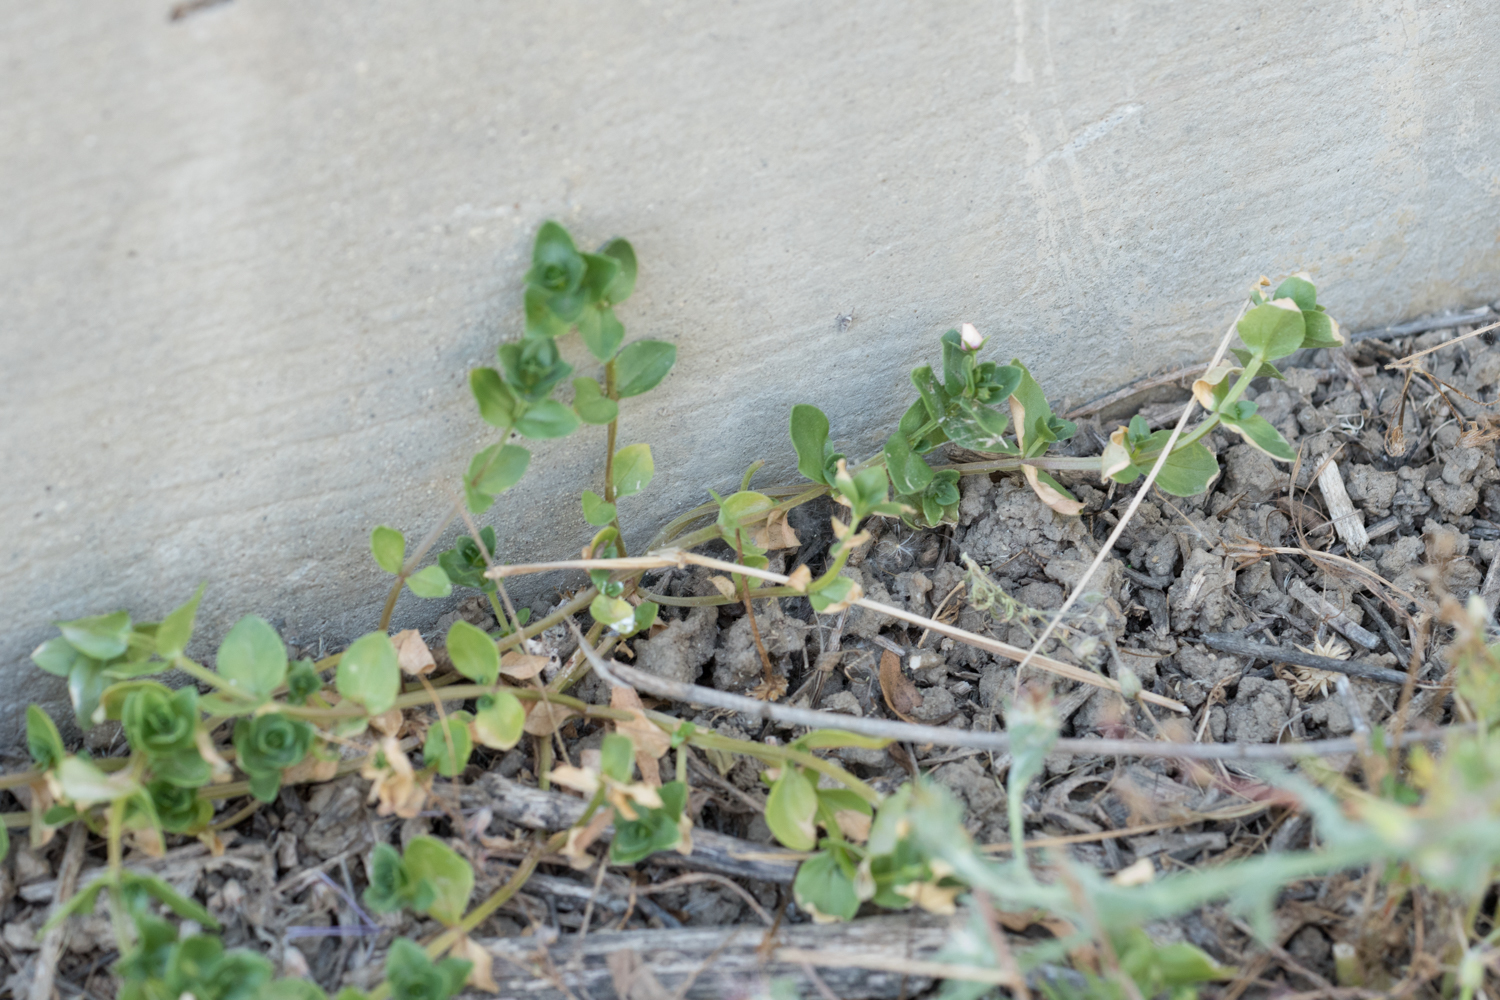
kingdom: Plantae
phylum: Tracheophyta
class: Magnoliopsida
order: Ericales
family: Primulaceae
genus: Lysimachia
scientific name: Lysimachia arvensis
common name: Scarlet pimpernel
